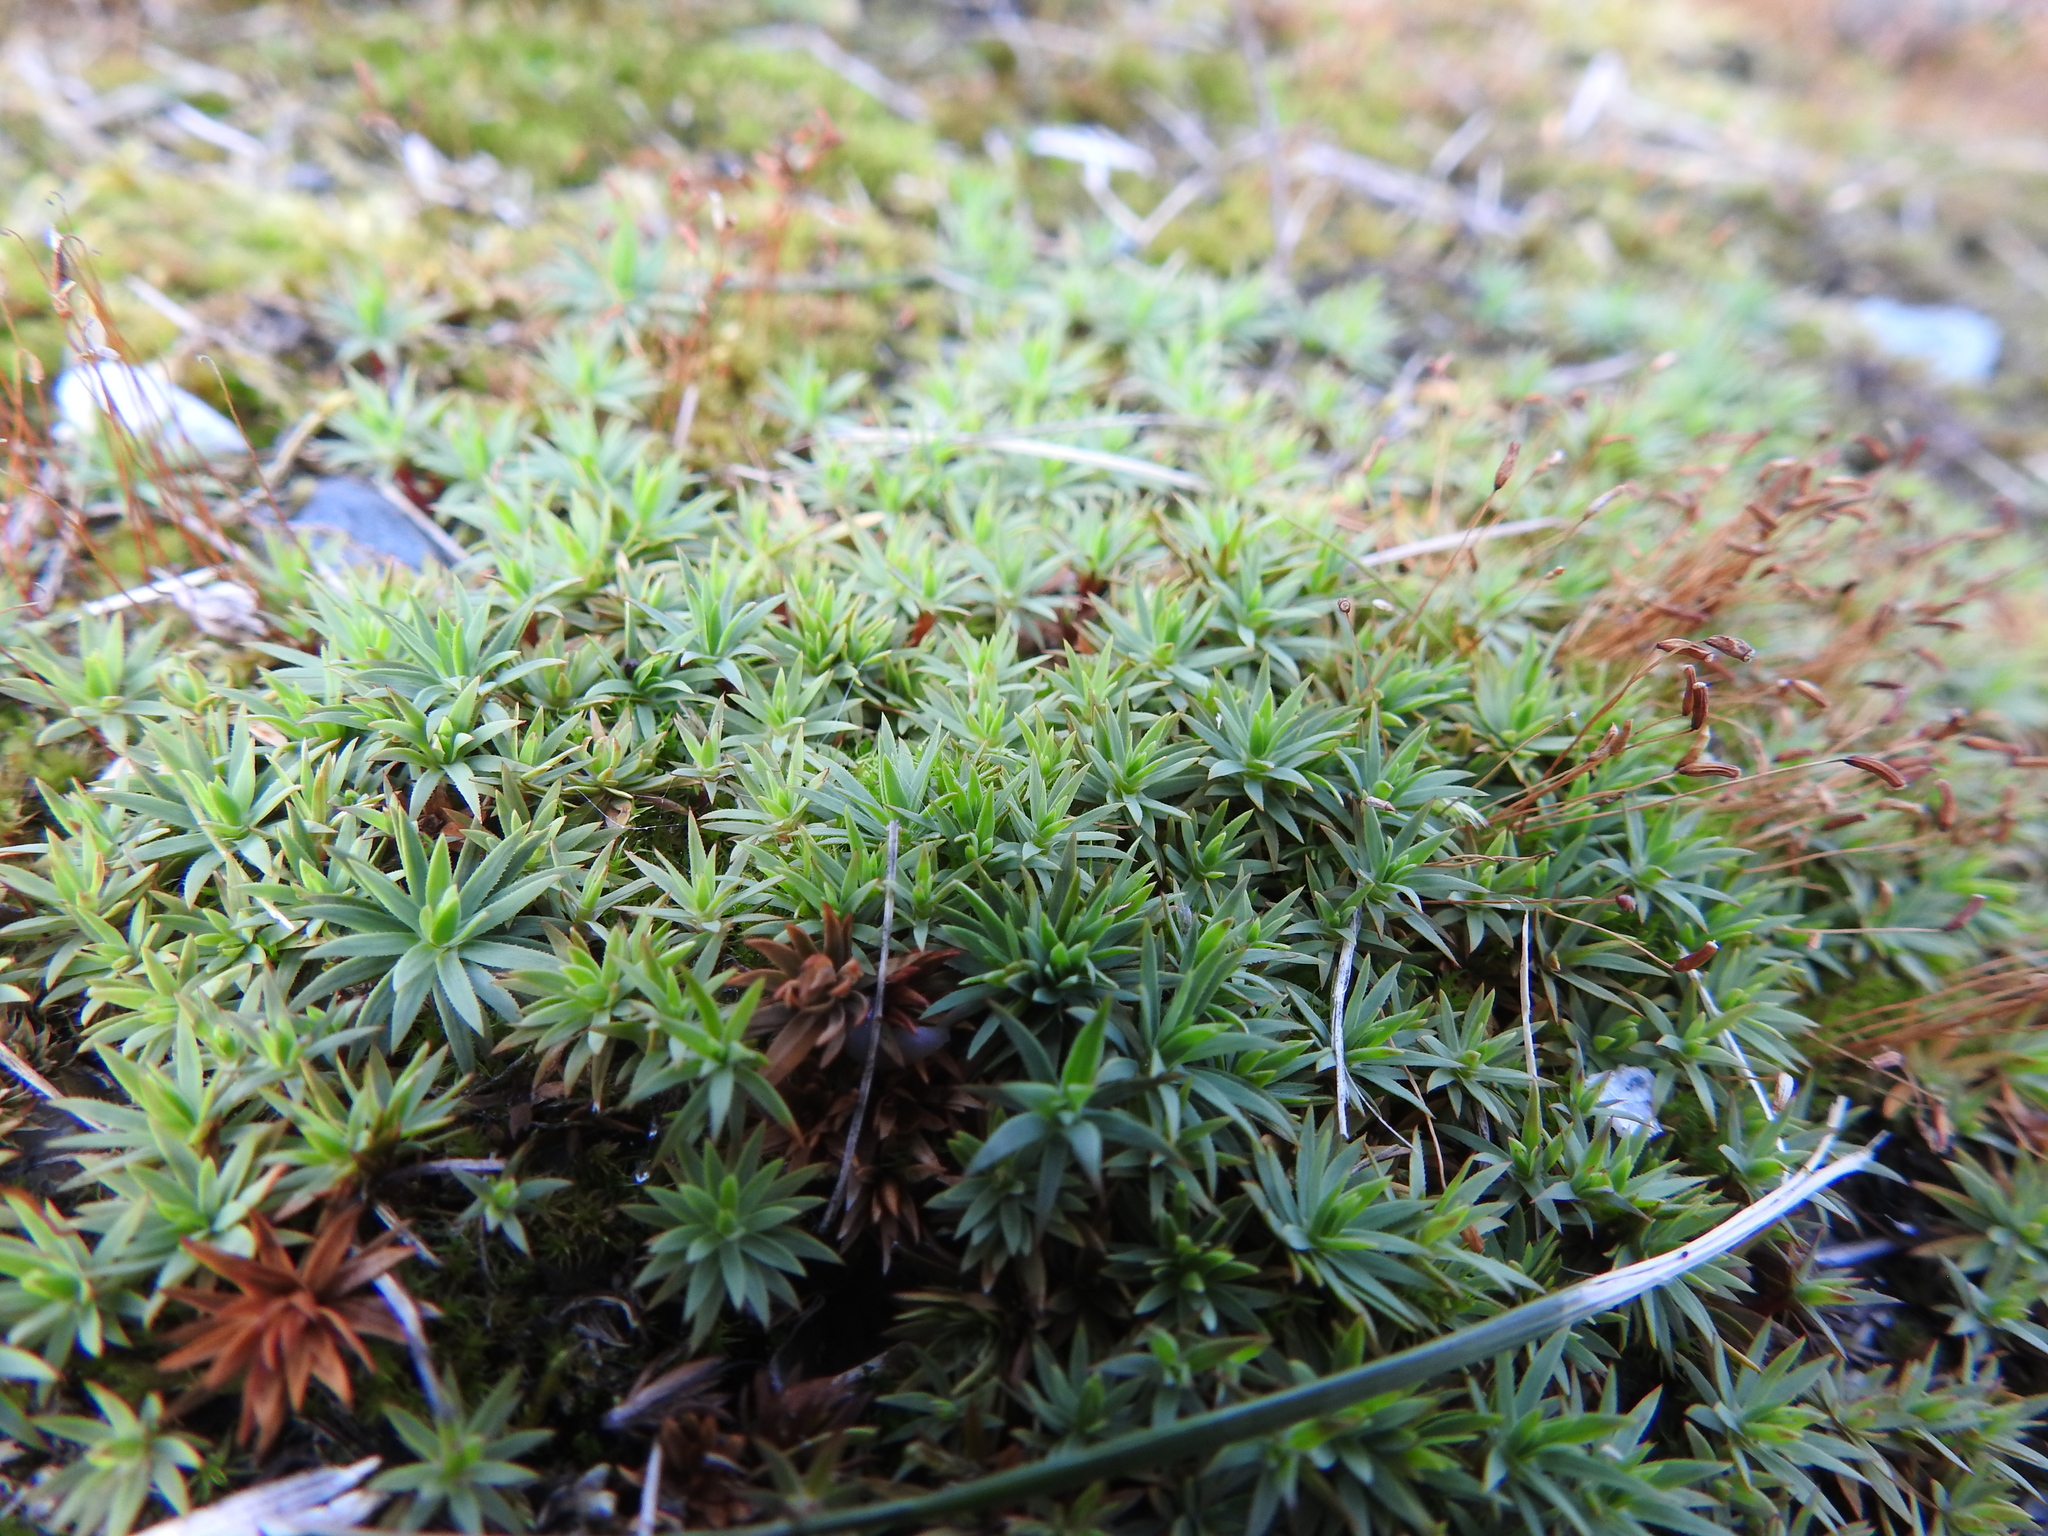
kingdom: Plantae
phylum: Bryophyta
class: Polytrichopsida
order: Polytrichales
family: Polytrichaceae
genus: Pogonatum
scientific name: Pogonatum urnigerum
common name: Urn hair moss
